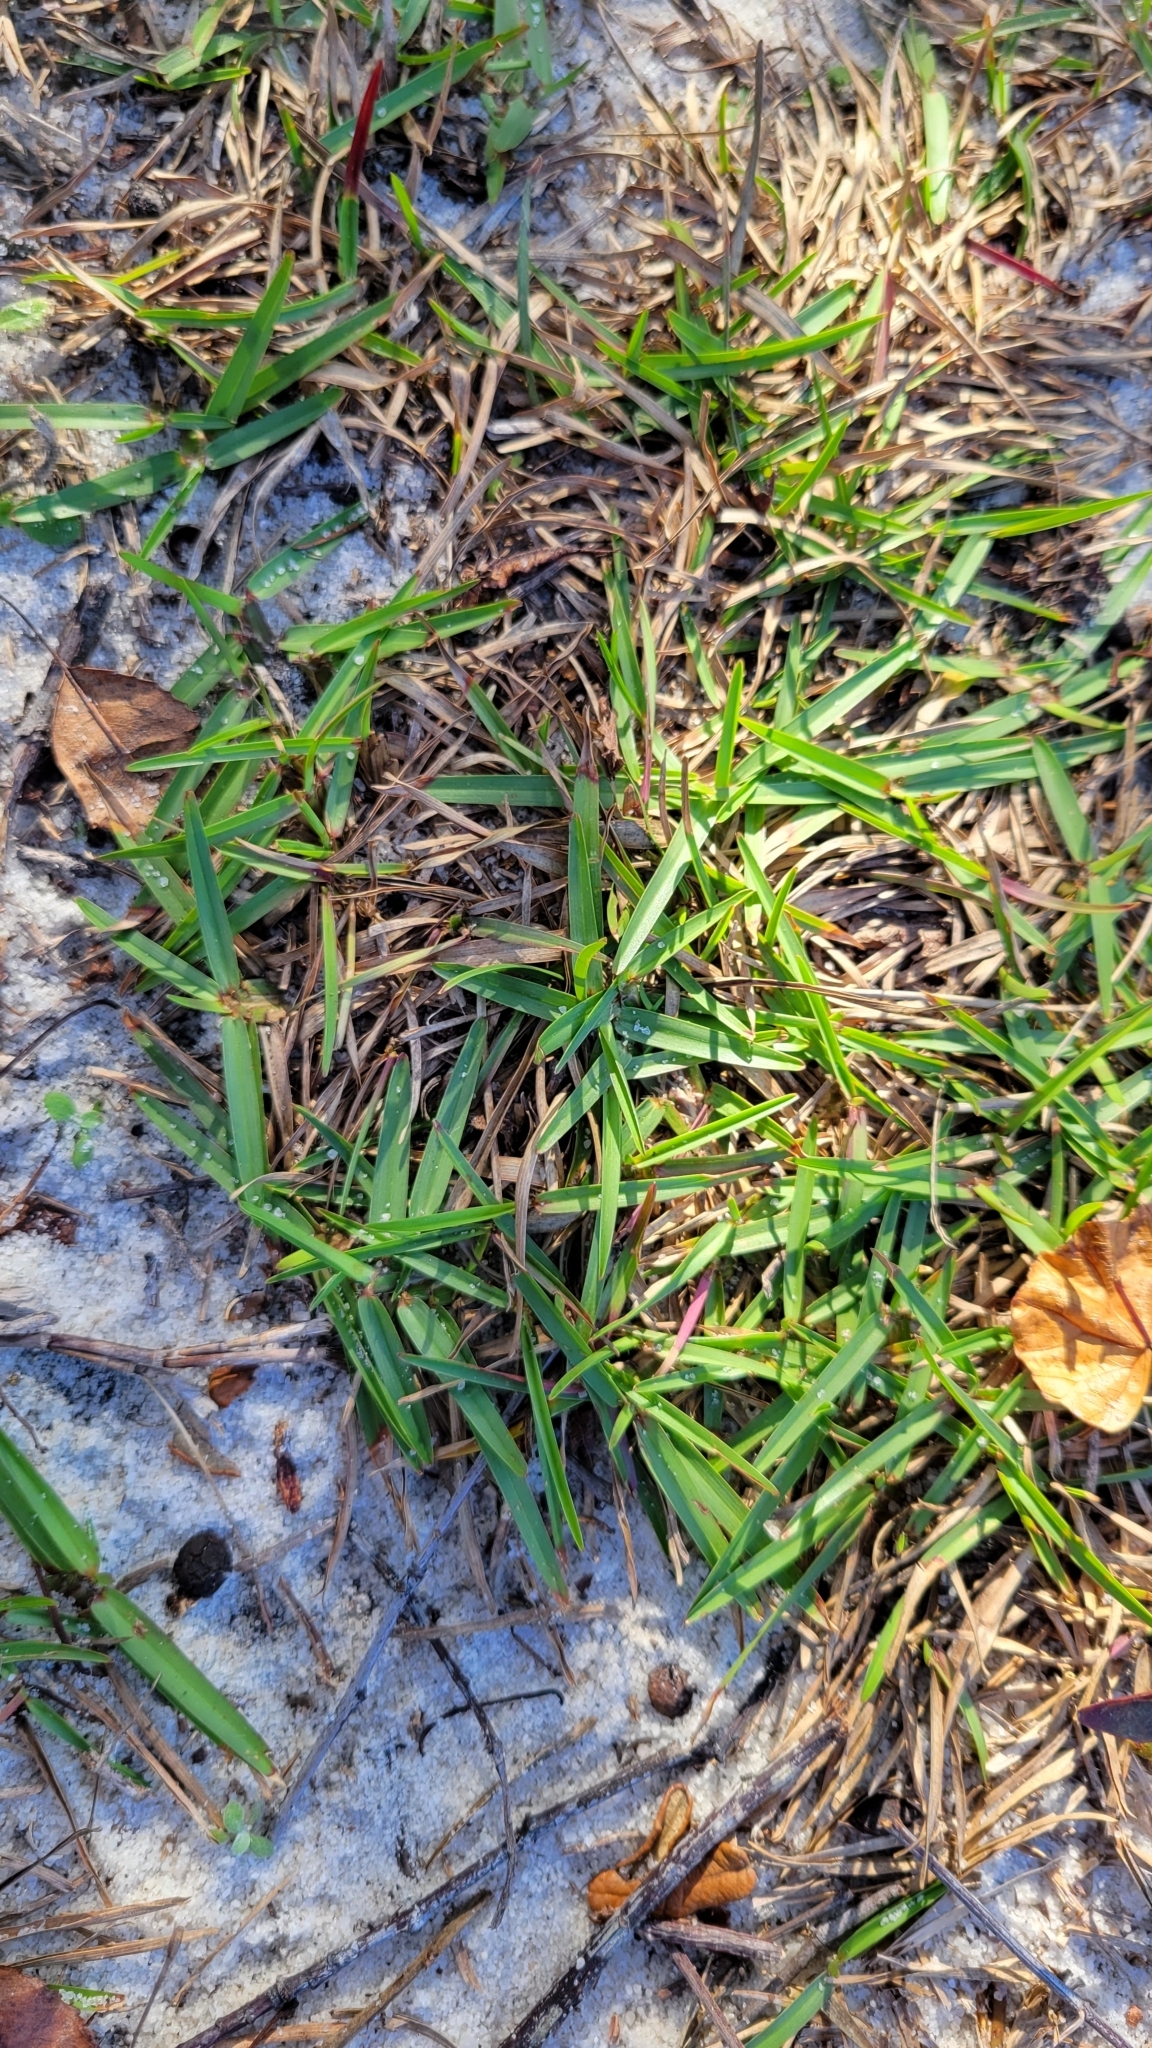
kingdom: Plantae
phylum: Tracheophyta
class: Liliopsida
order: Poales
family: Poaceae
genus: Stenotaphrum
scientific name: Stenotaphrum secundatum
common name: St. augustine grass
